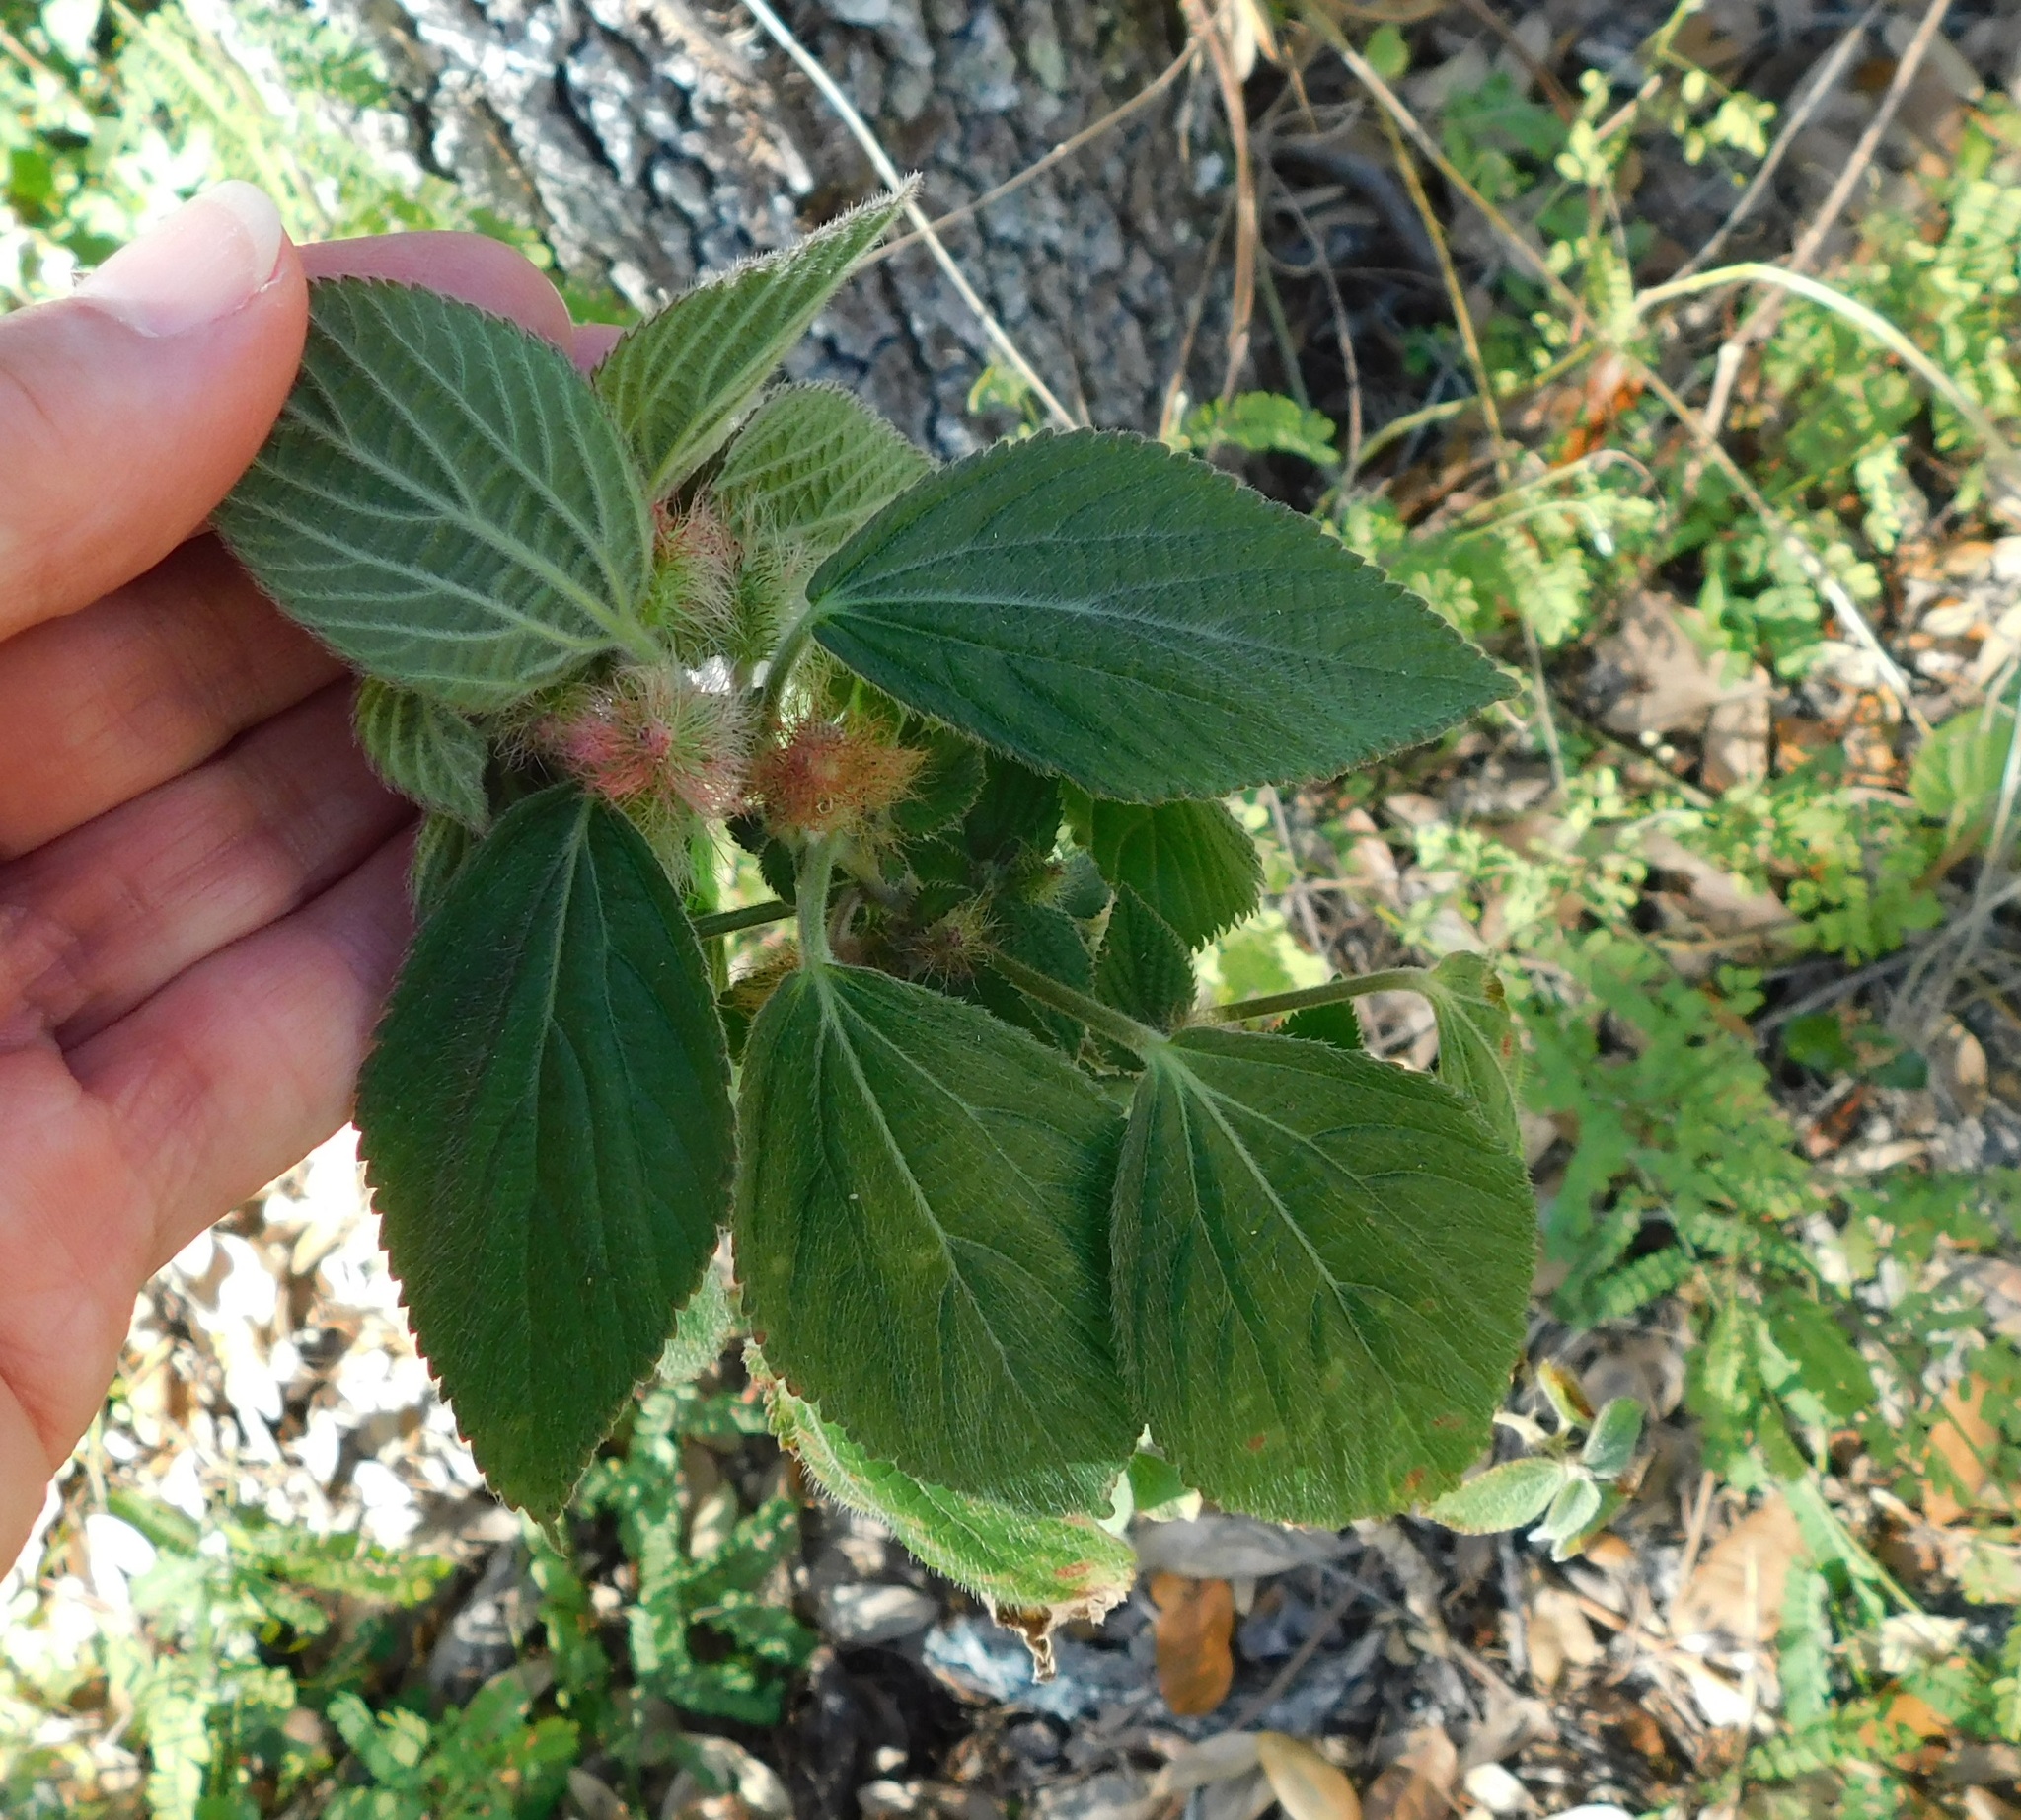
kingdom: Plantae
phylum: Tracheophyta
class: Magnoliopsida
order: Malpighiales
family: Euphorbiaceae
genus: Acalypha
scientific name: Acalypha arvensis
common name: Field copperleaf
